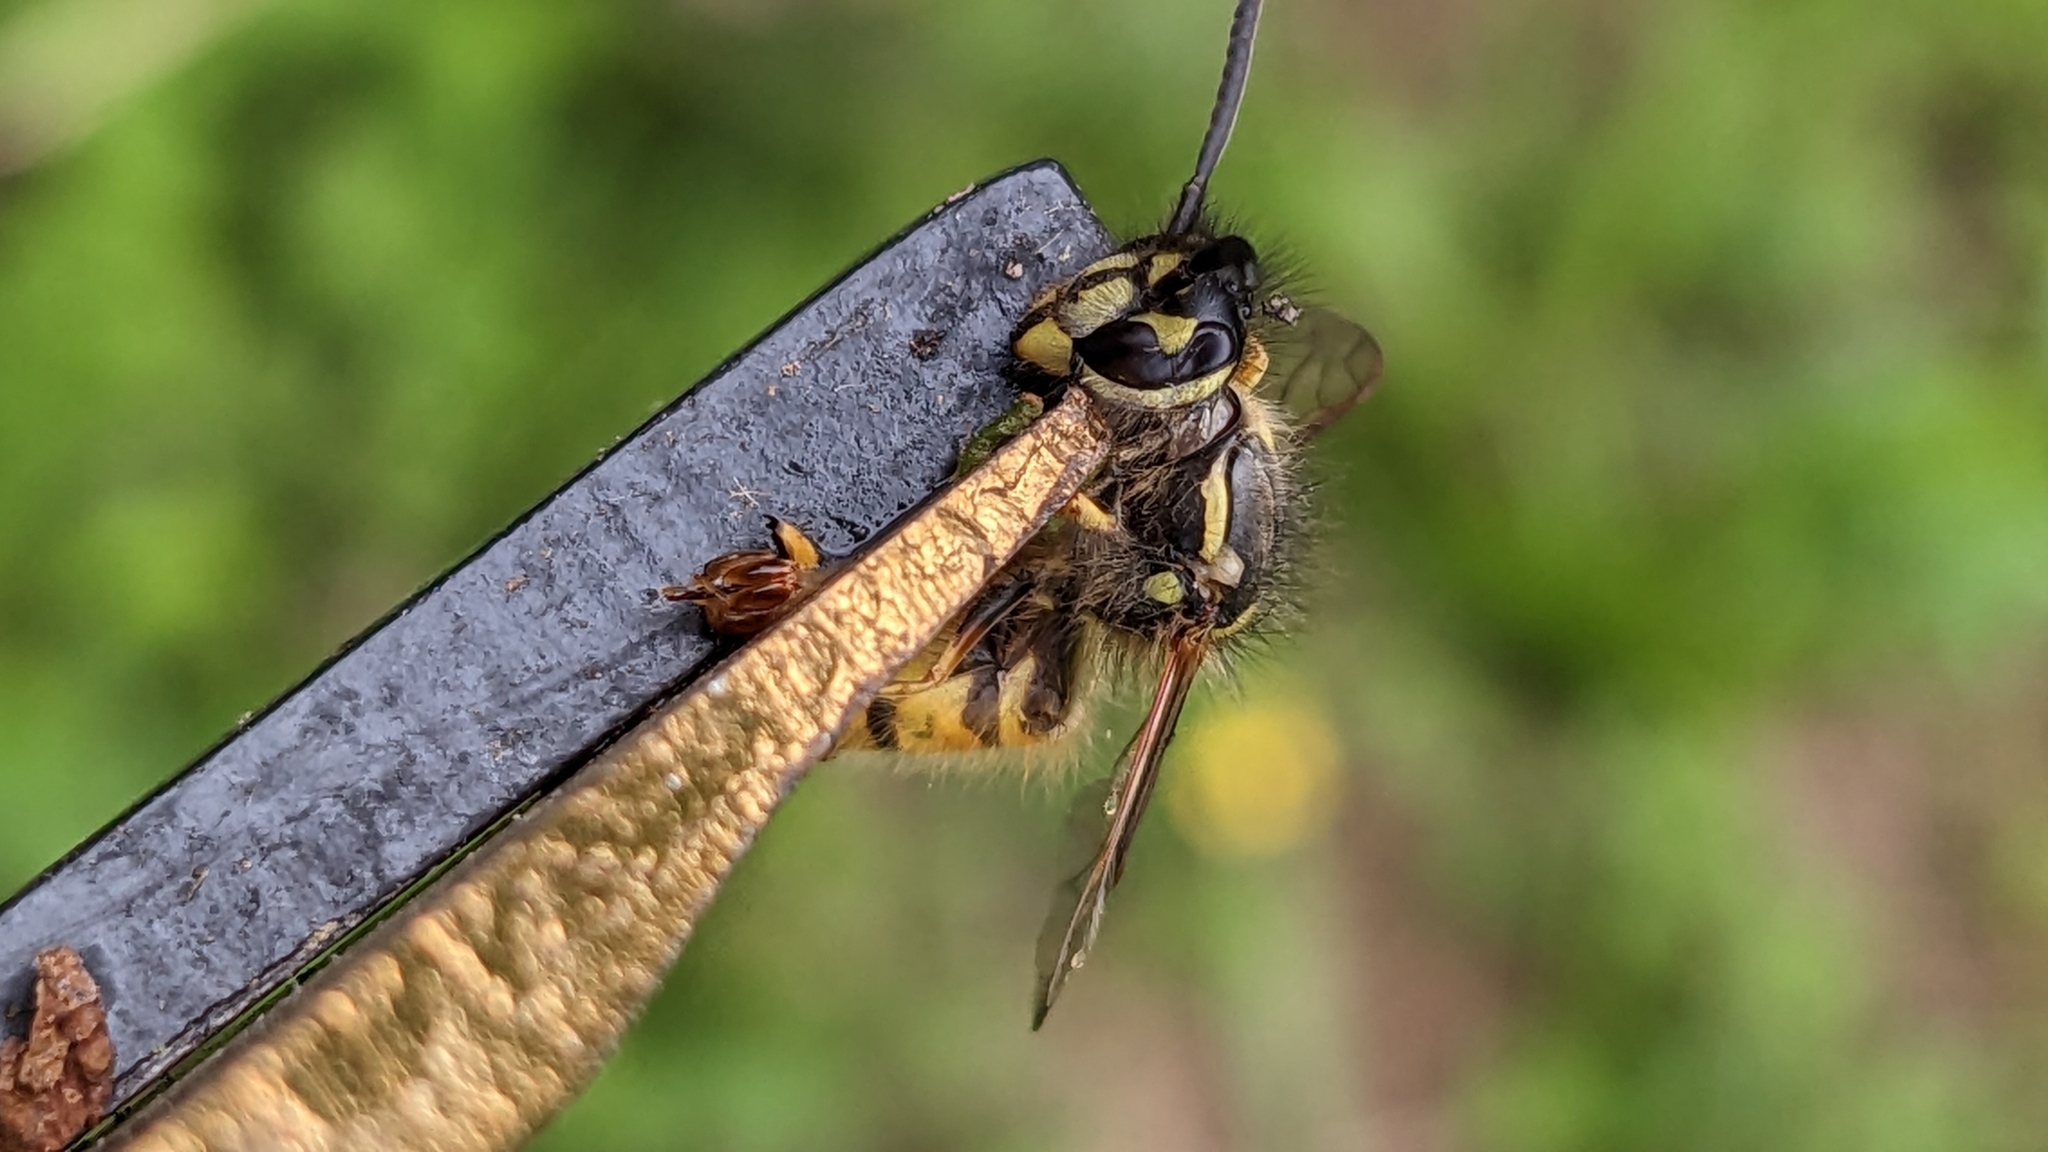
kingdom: Animalia
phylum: Arthropoda
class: Insecta
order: Hymenoptera
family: Vespidae
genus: Vespula
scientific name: Vespula vulgaris
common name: Common wasp
